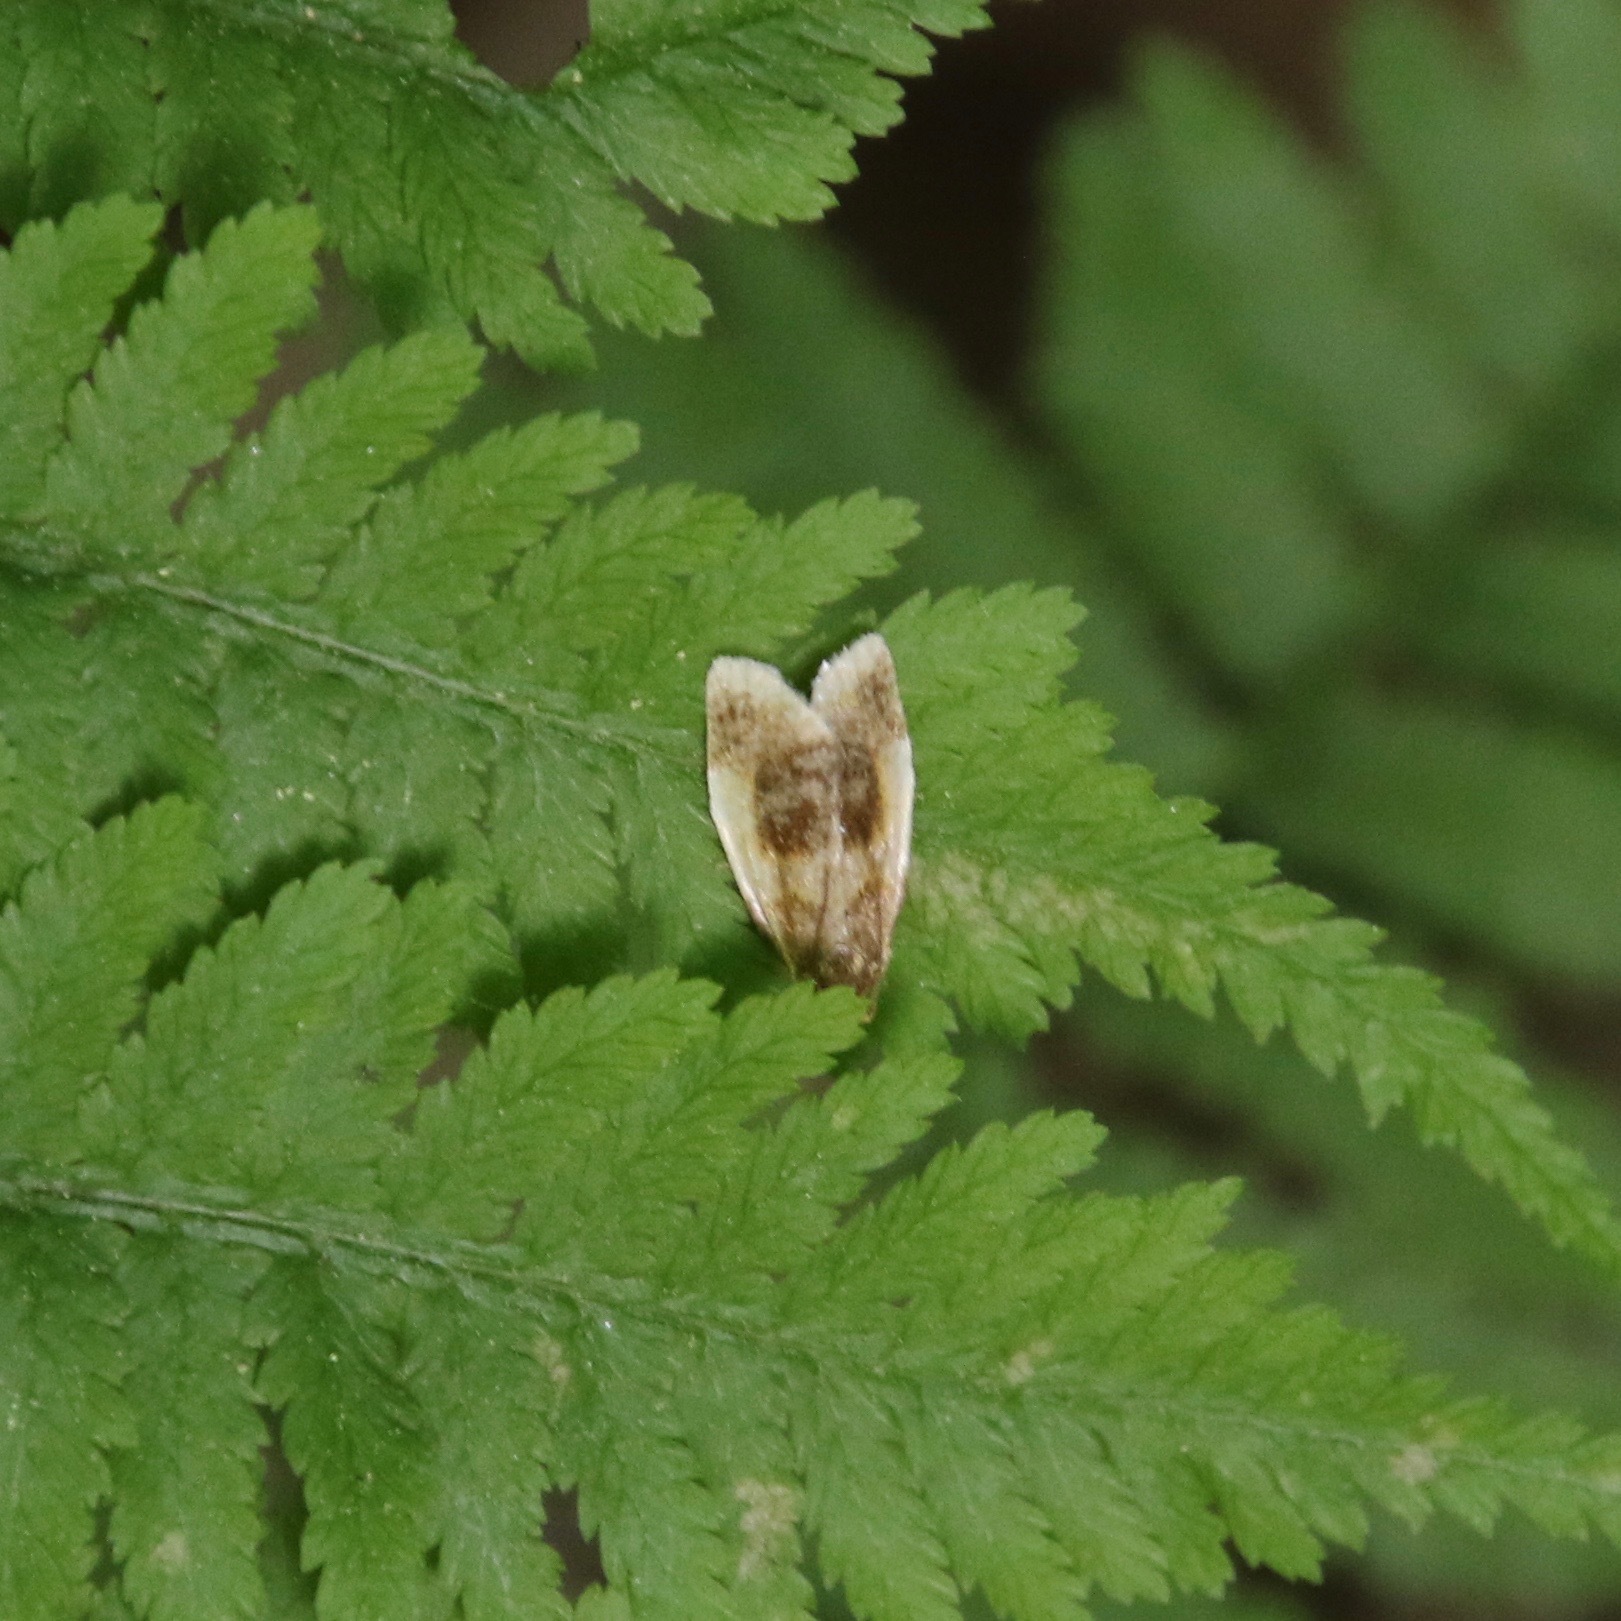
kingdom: Animalia
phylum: Arthropoda
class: Insecta
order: Lepidoptera
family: Tortricidae
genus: Clepsis
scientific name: Clepsis melaleucanus
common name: American apple tortrix
